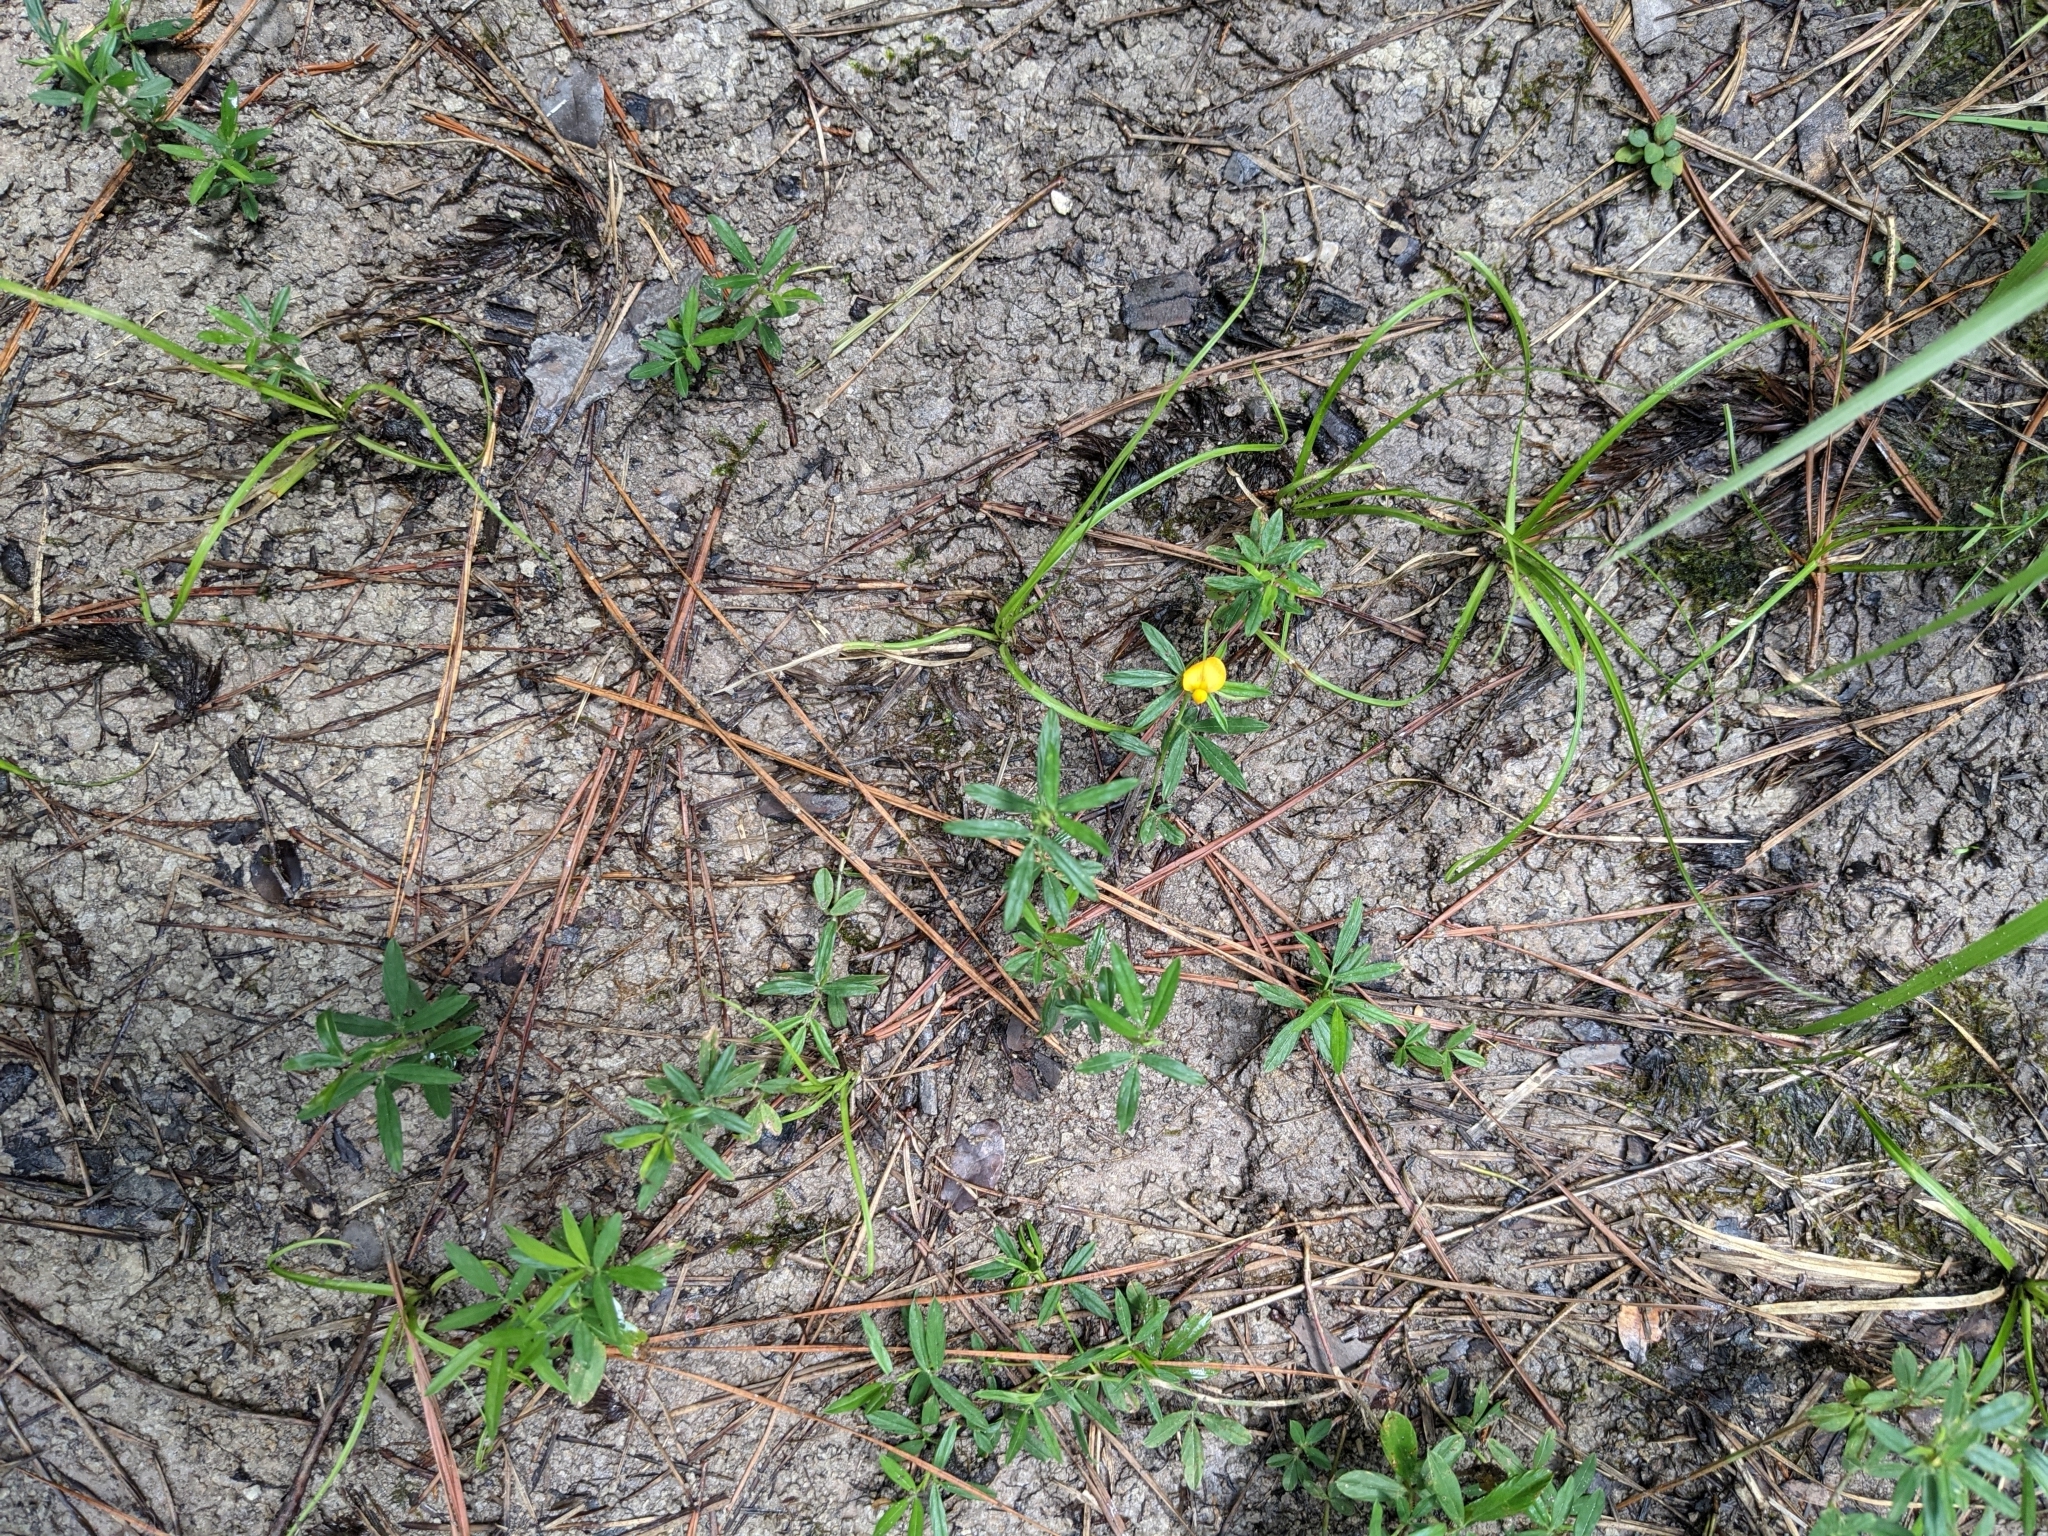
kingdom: Plantae
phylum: Tracheophyta
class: Magnoliopsida
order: Fabales
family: Fabaceae
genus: Stylosanthes
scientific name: Stylosanthes biflora
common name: Two-flower pencil-flower
